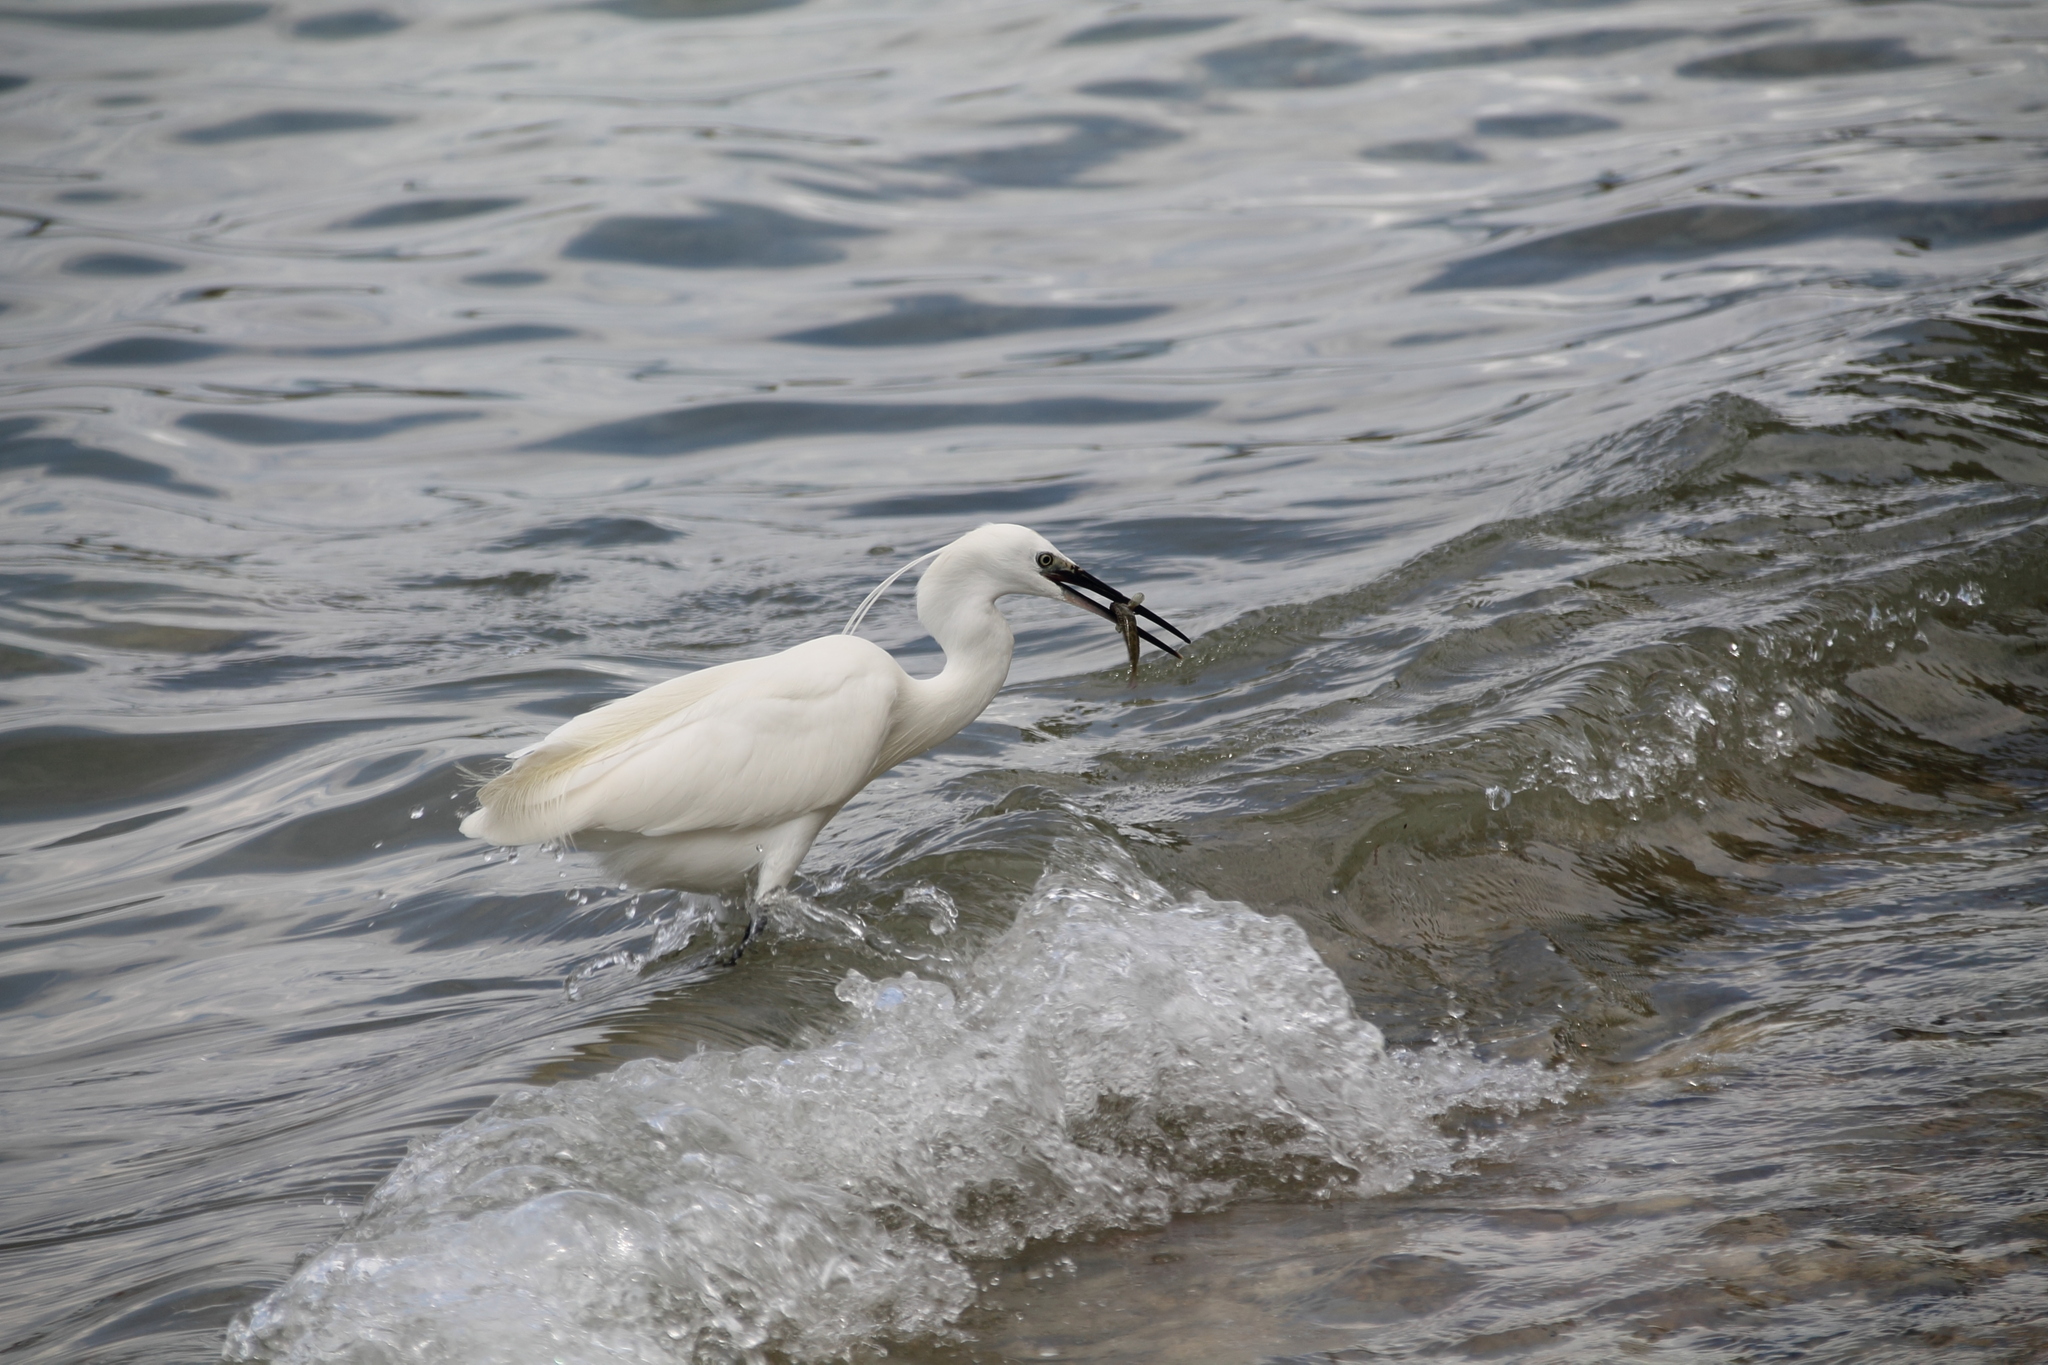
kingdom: Animalia
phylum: Chordata
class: Aves
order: Pelecaniformes
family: Ardeidae
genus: Egretta
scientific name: Egretta garzetta
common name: Little egret
